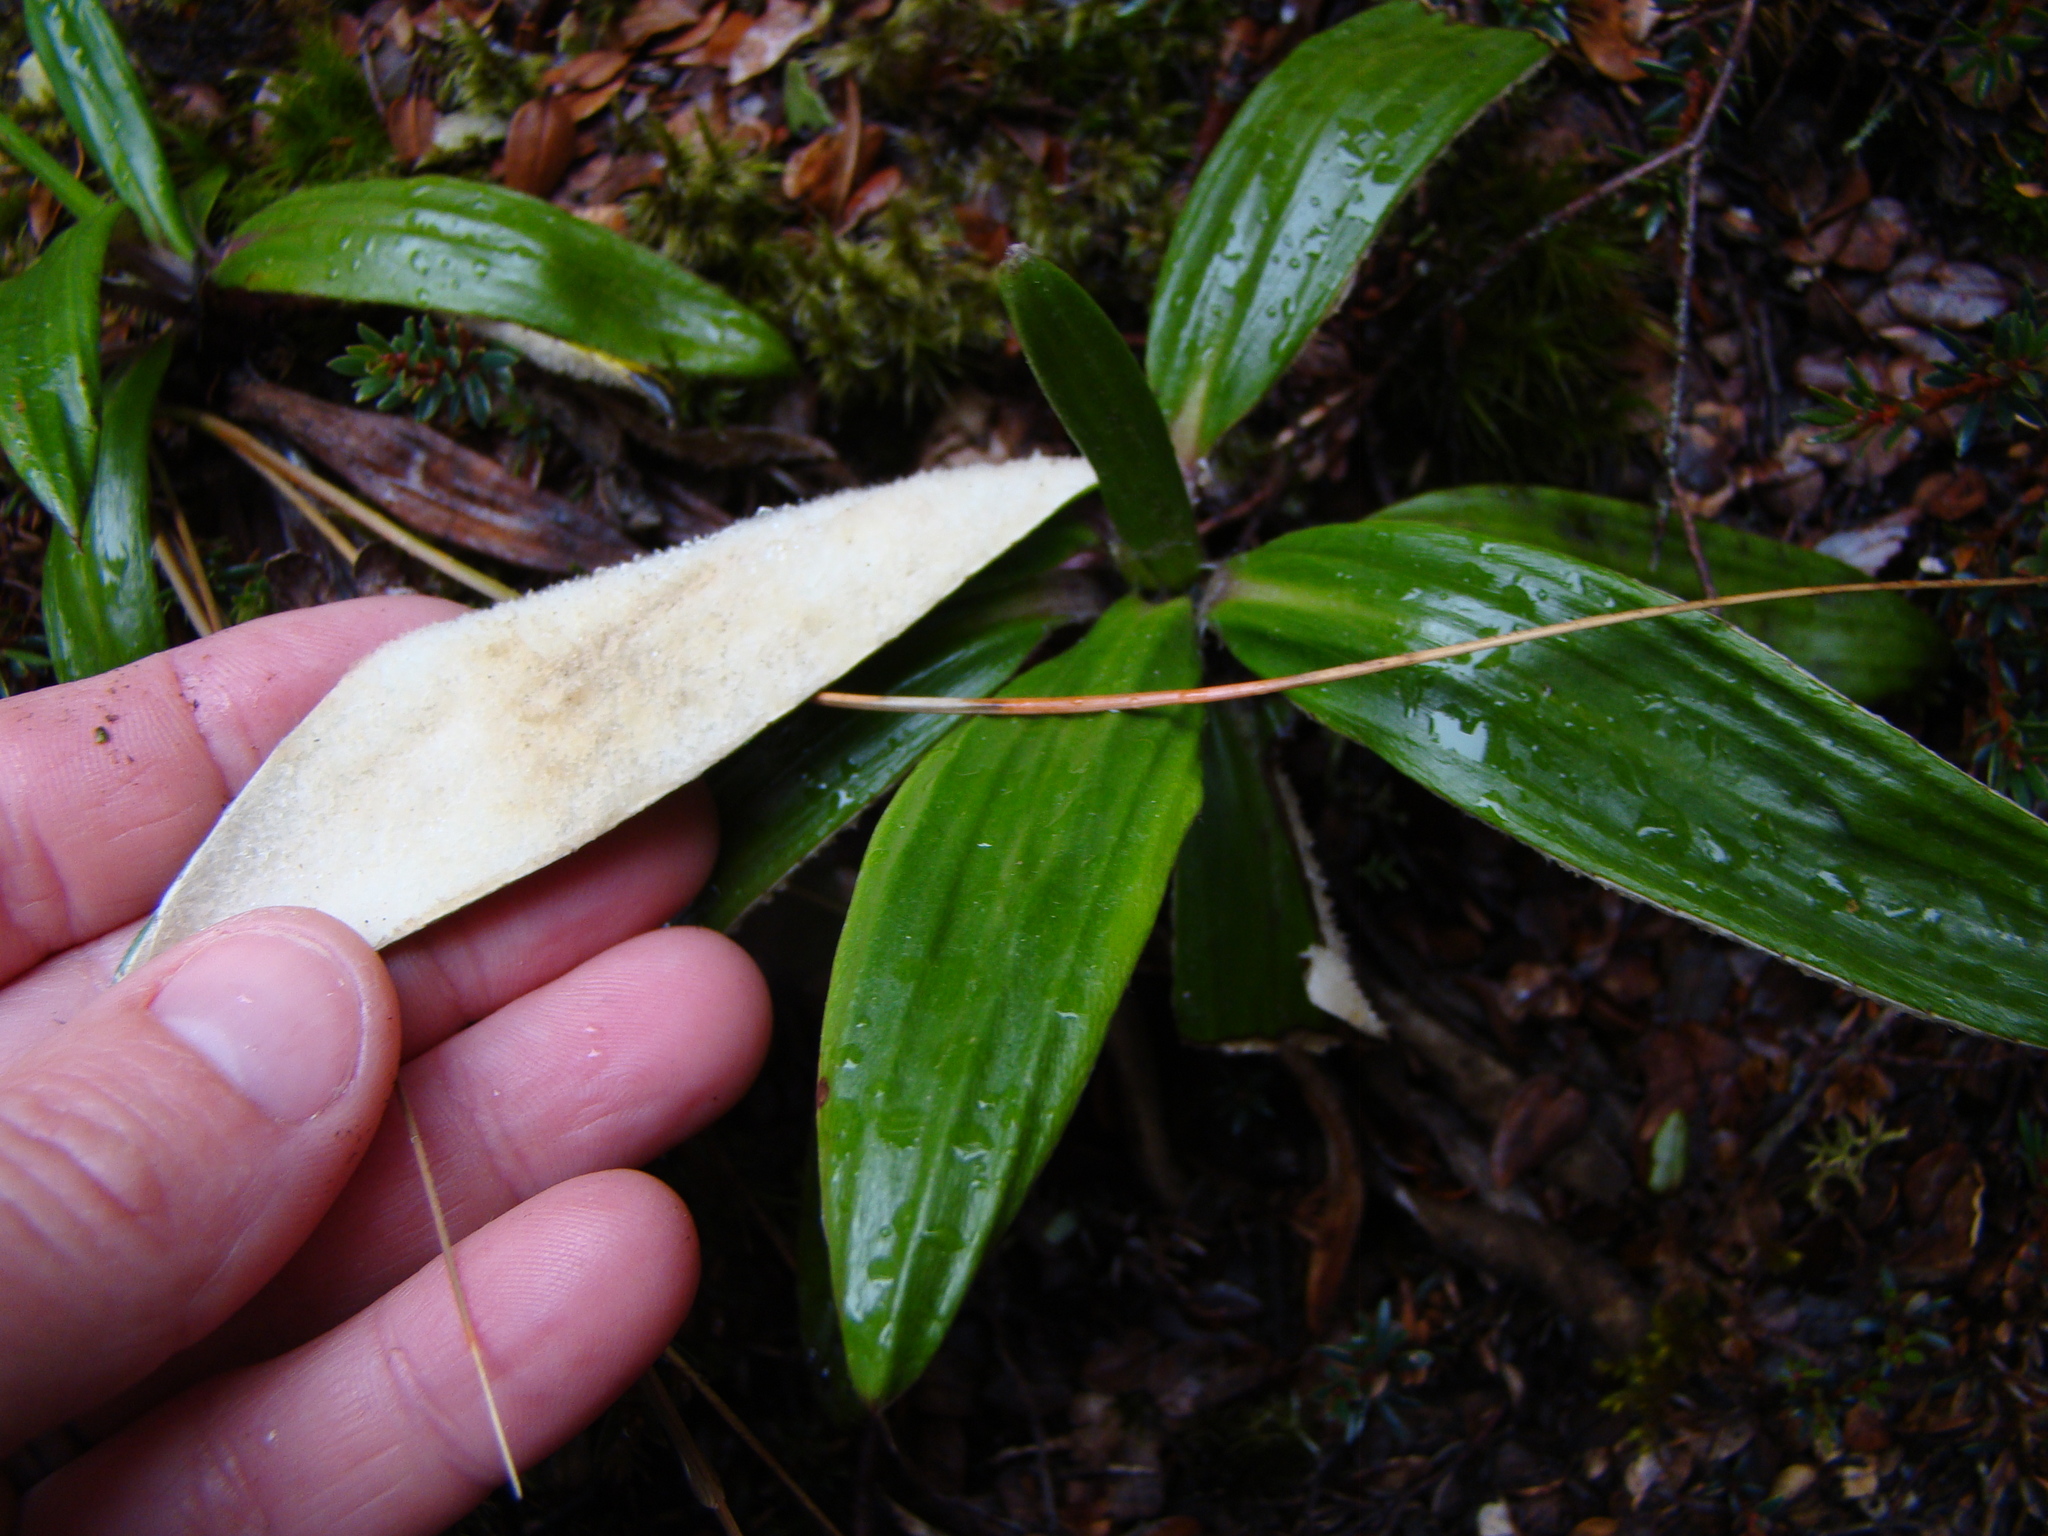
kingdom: Plantae
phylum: Tracheophyta
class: Magnoliopsida
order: Asterales
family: Asteraceae
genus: Celmisia
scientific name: Celmisia spectabilis
